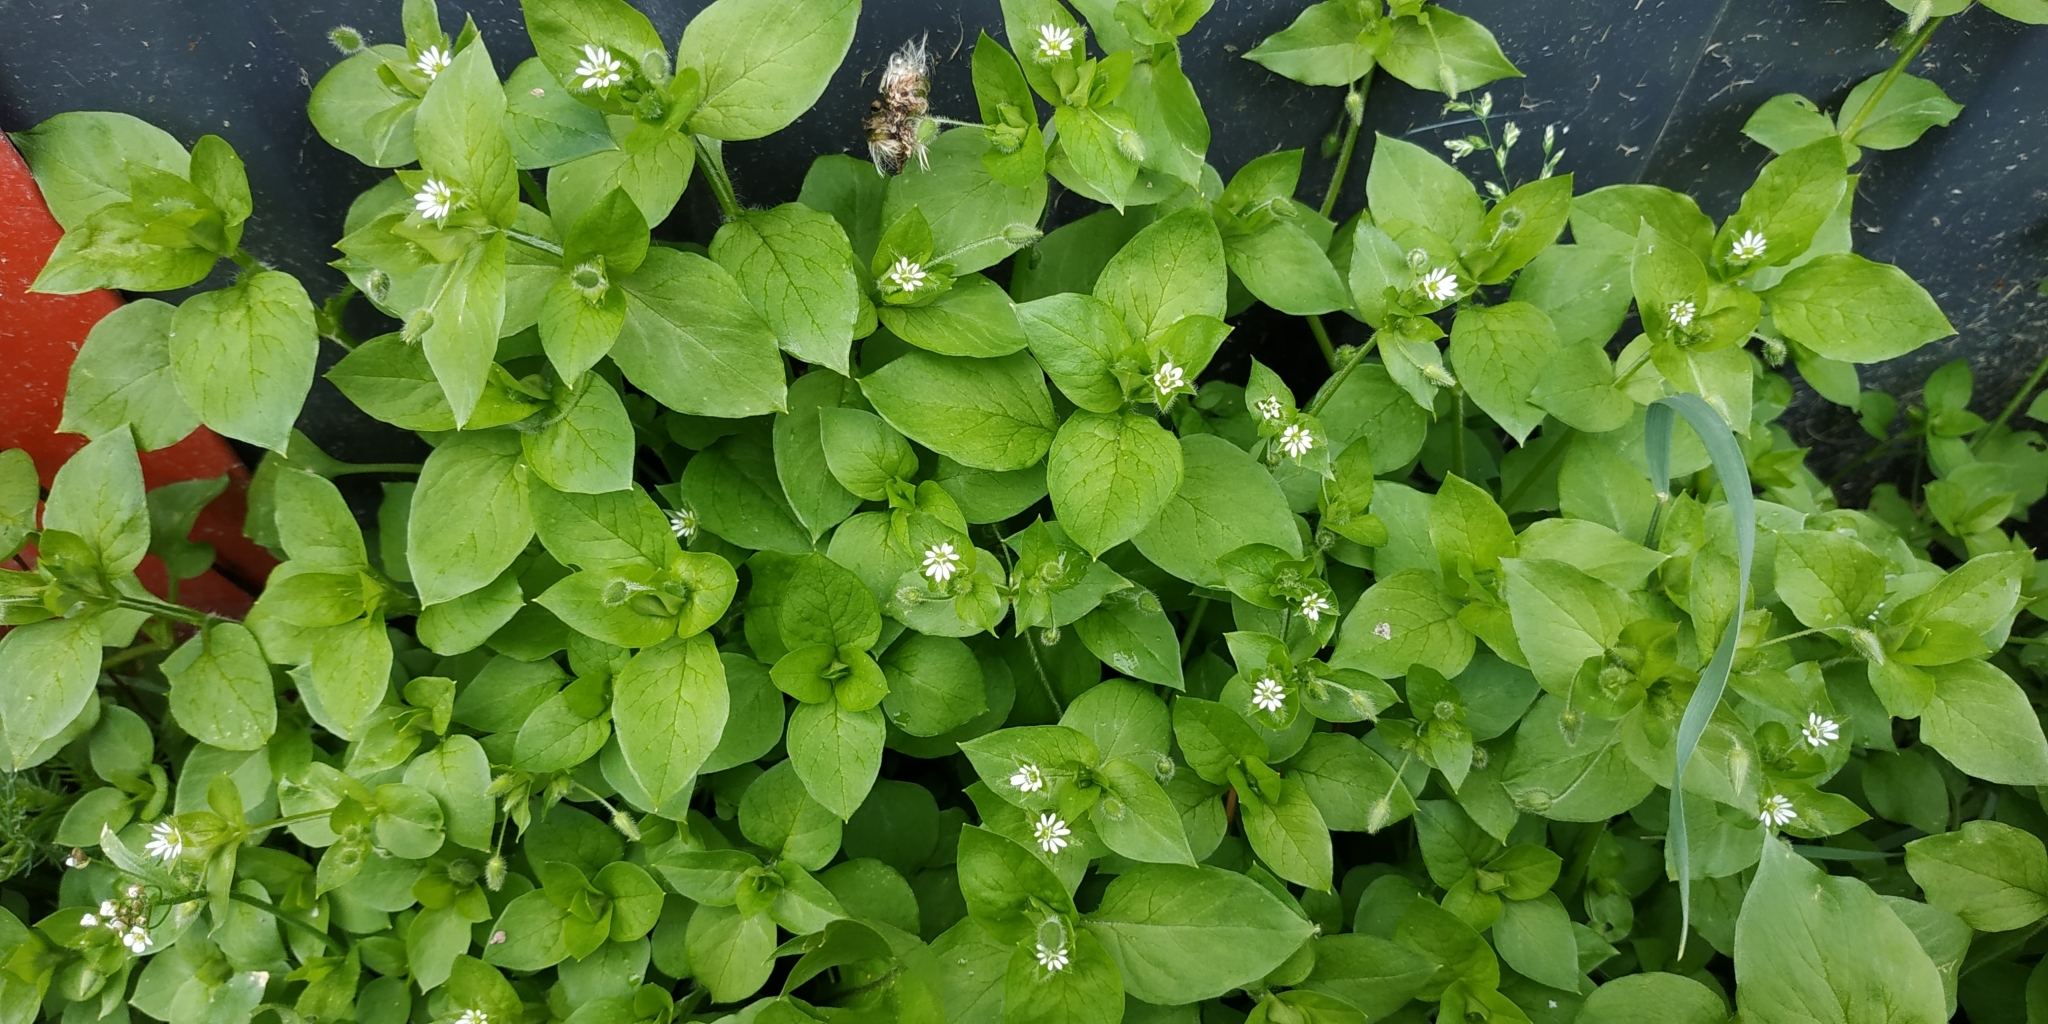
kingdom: Plantae
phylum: Tracheophyta
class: Magnoliopsida
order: Caryophyllales
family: Caryophyllaceae
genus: Stellaria
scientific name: Stellaria media
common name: Common chickweed
